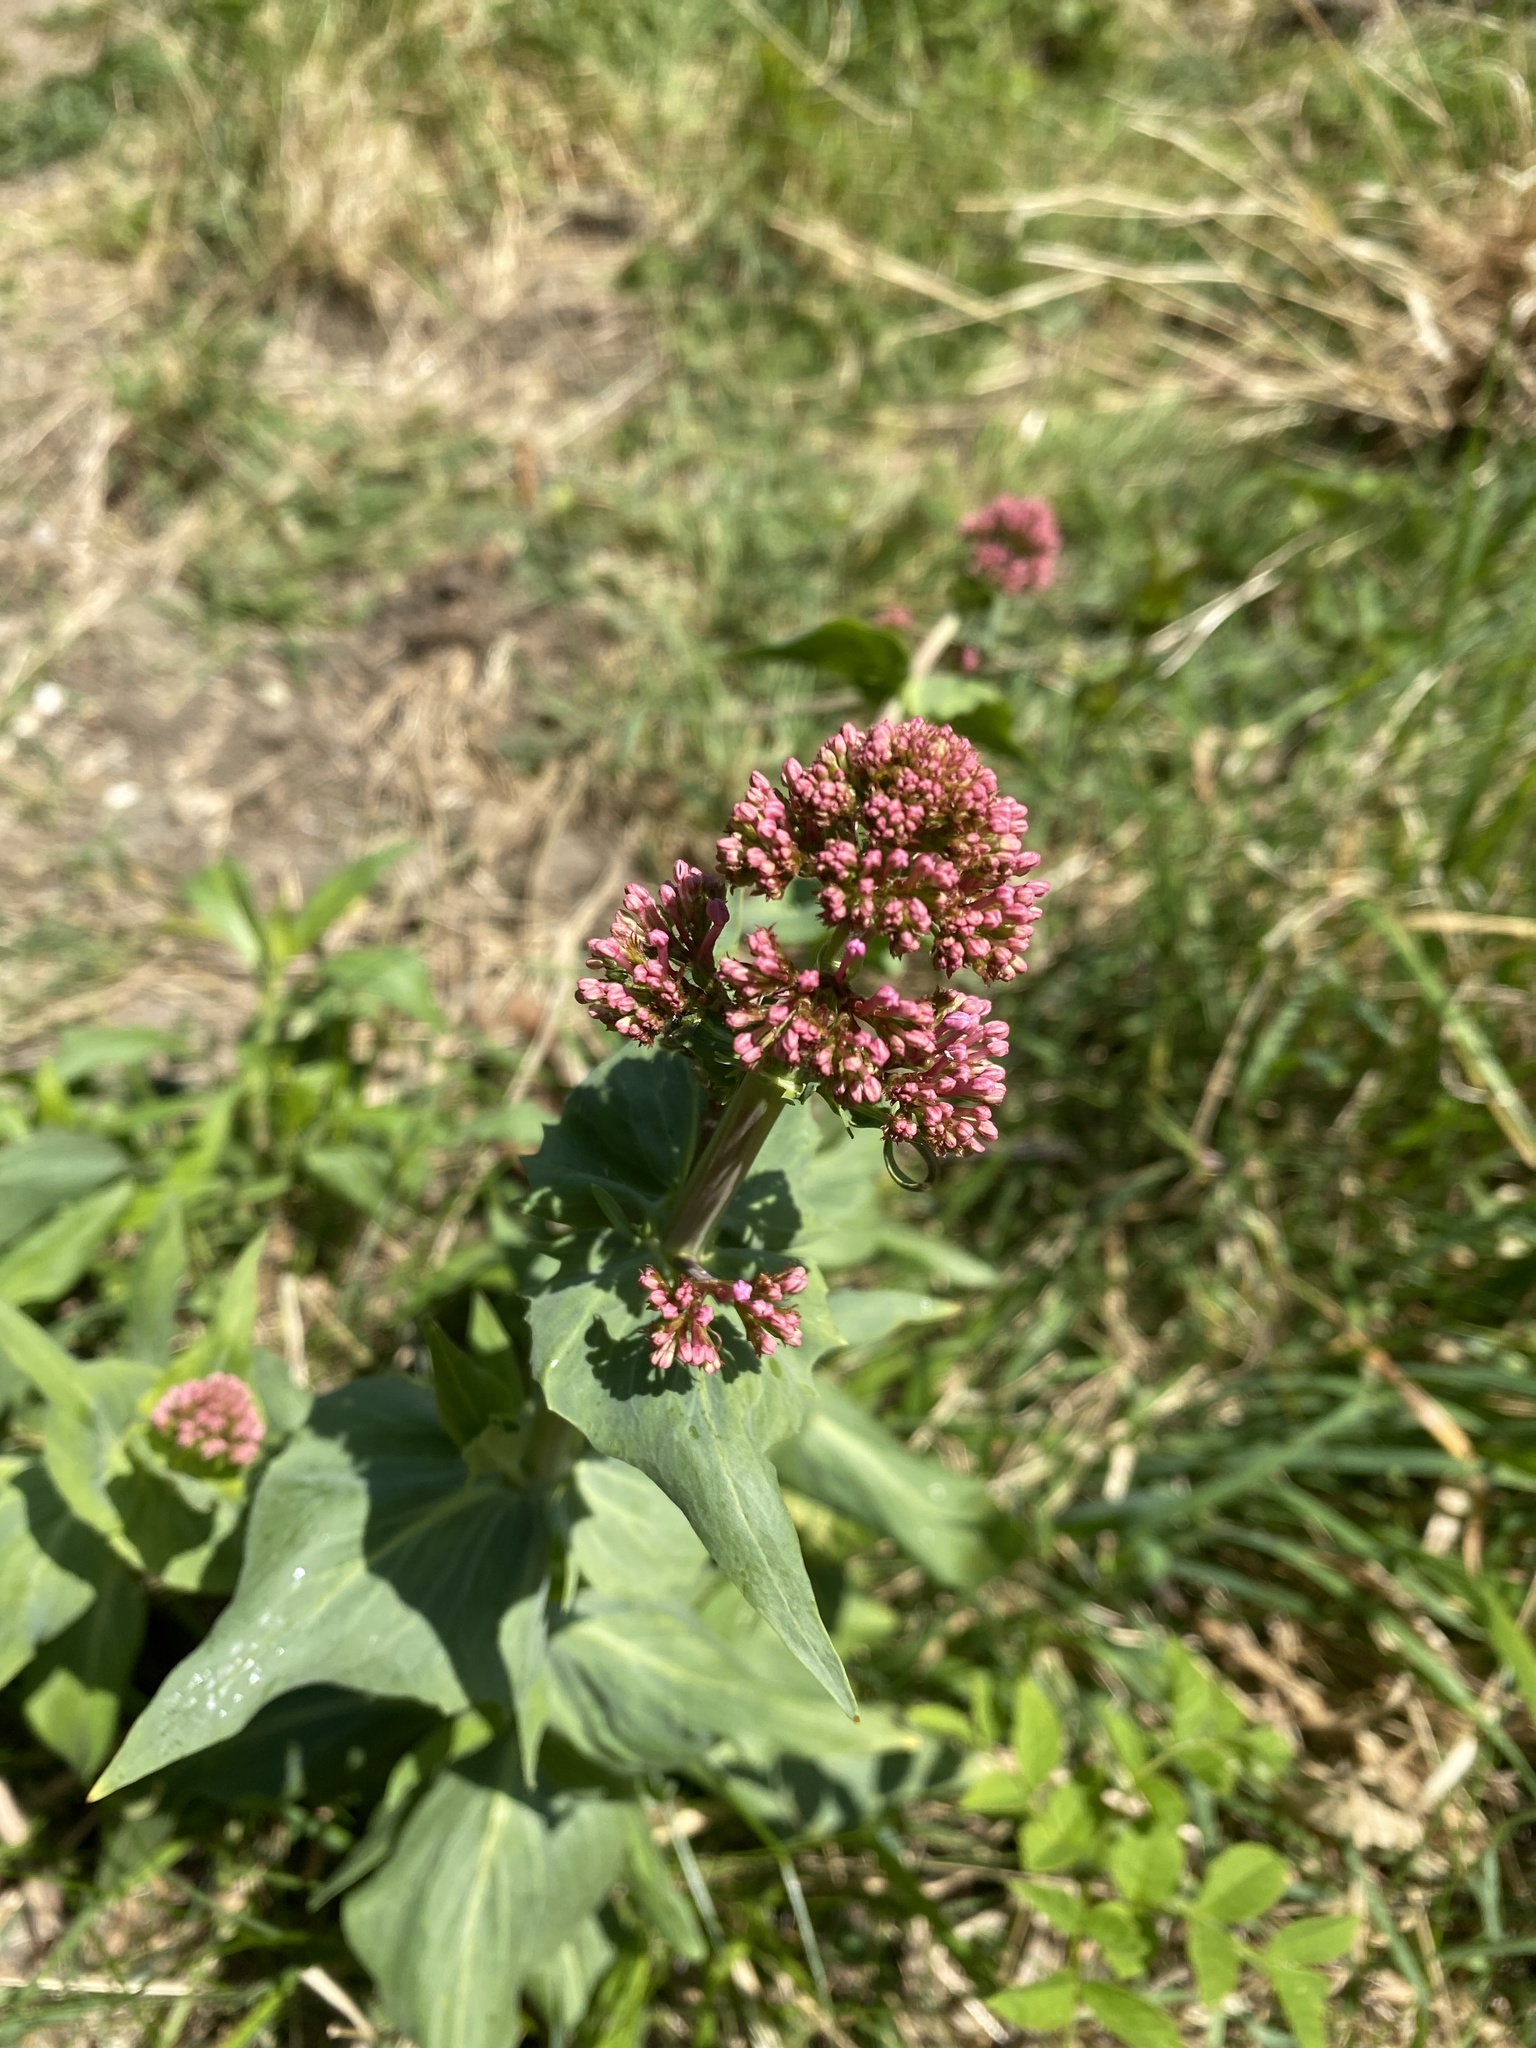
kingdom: Plantae
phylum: Tracheophyta
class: Magnoliopsida
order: Dipsacales
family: Caprifoliaceae
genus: Centranthus
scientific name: Centranthus ruber
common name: Red valerian
